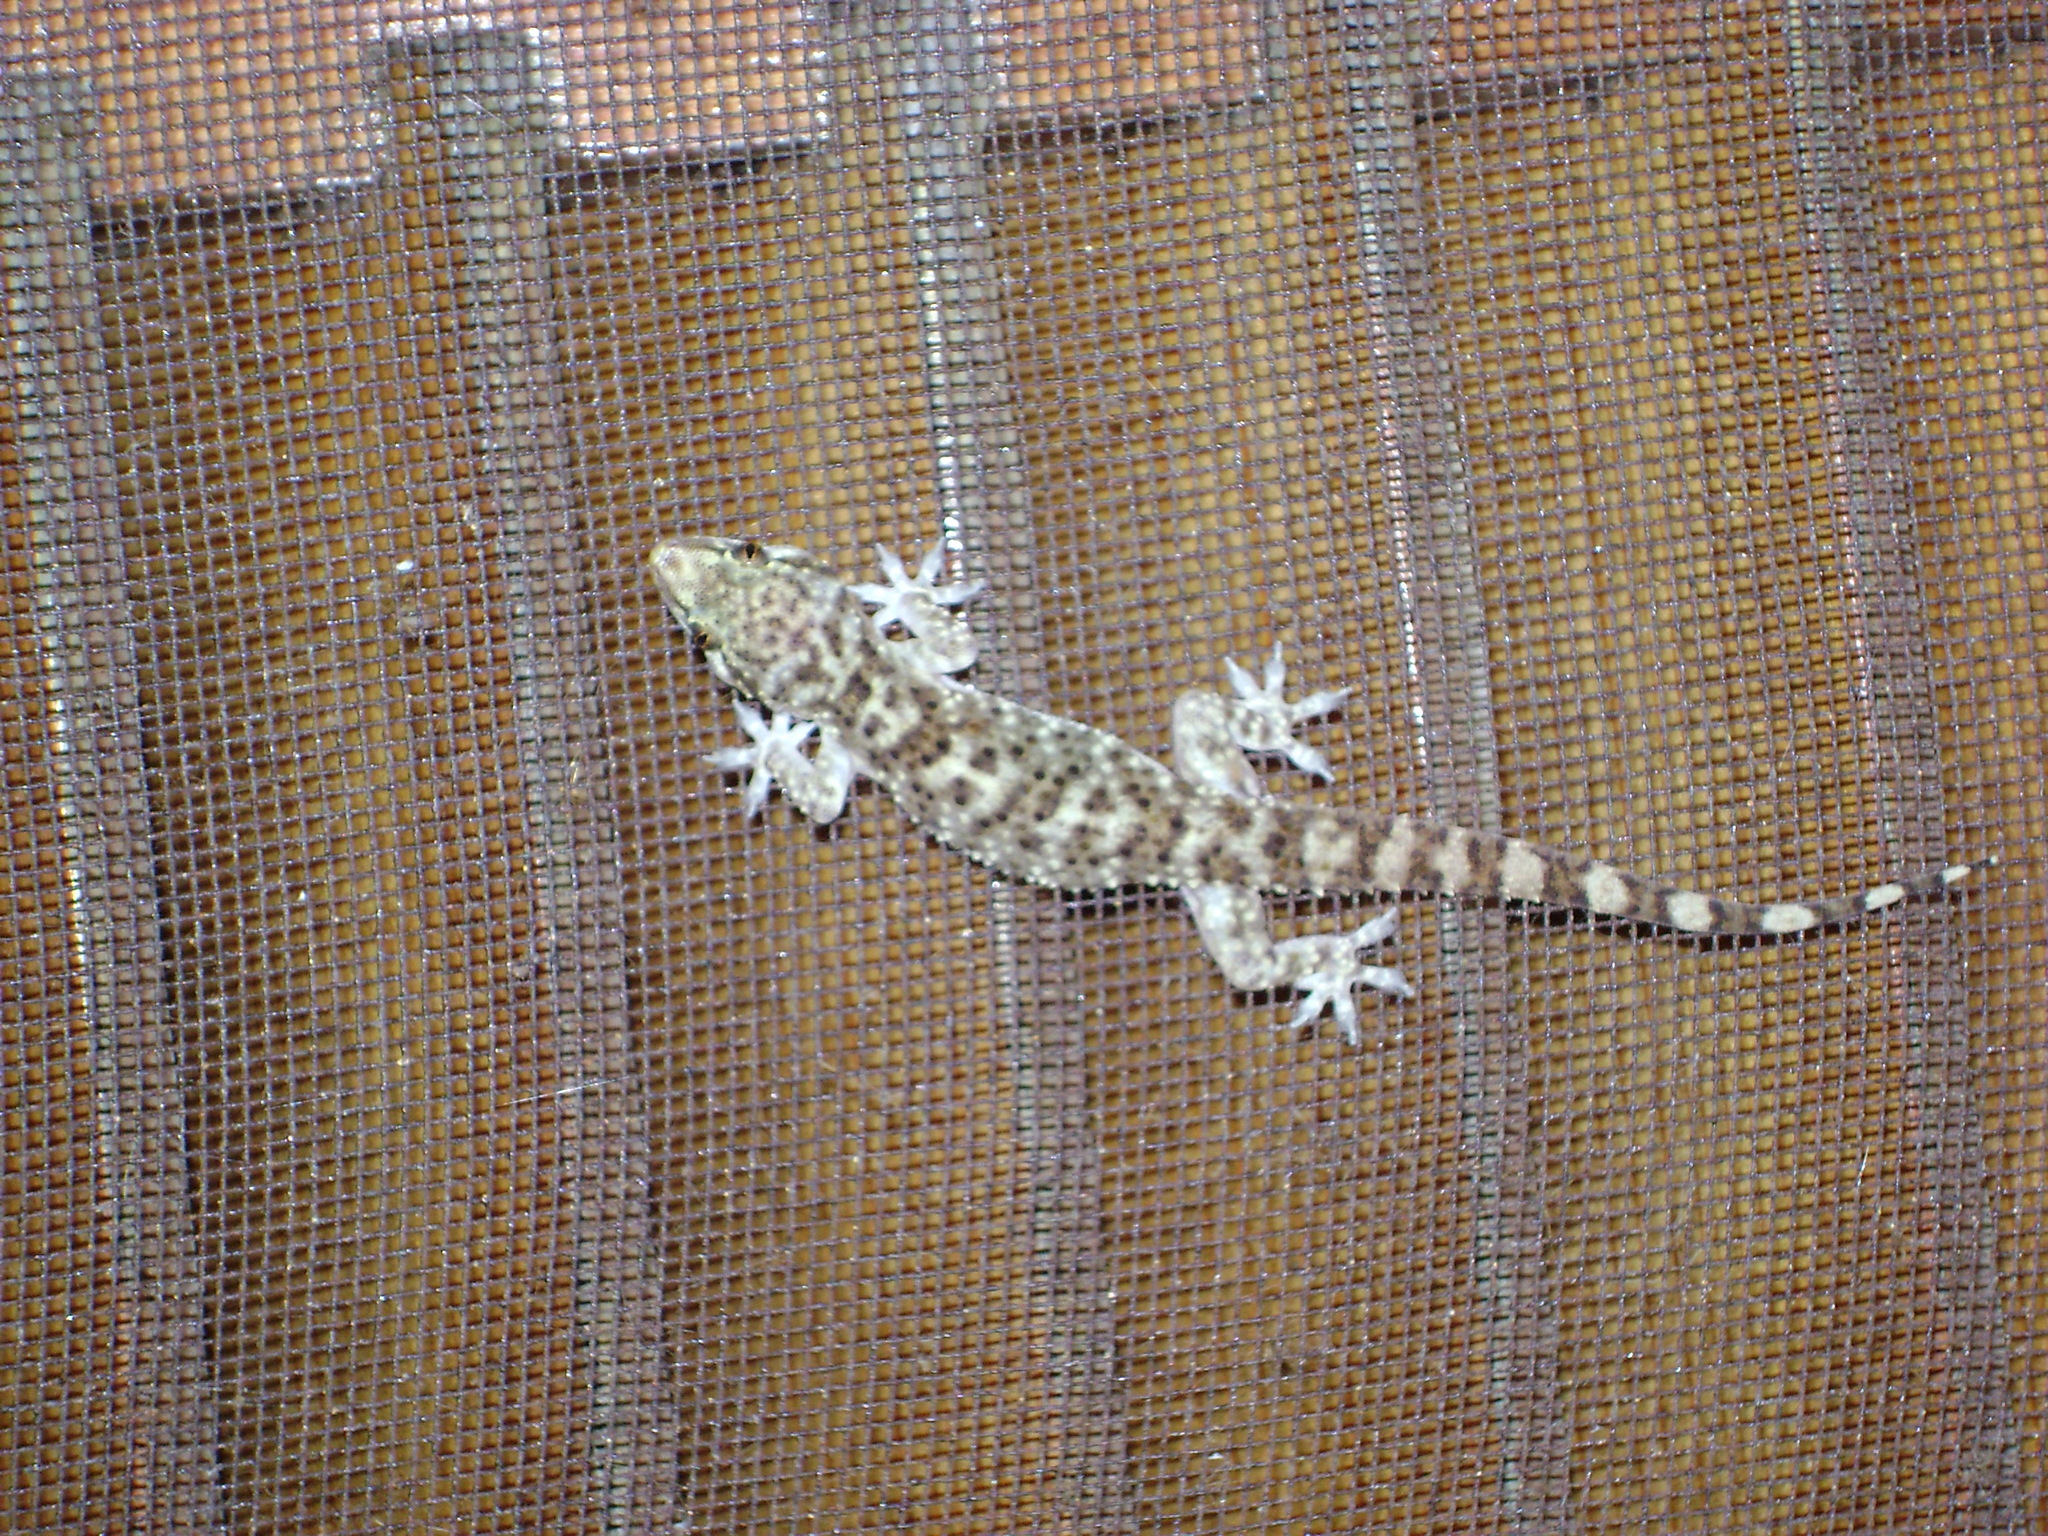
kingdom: Animalia
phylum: Chordata
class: Squamata
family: Gekkonidae
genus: Hemidactylus
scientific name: Hemidactylus turcicus
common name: Turkish gecko
